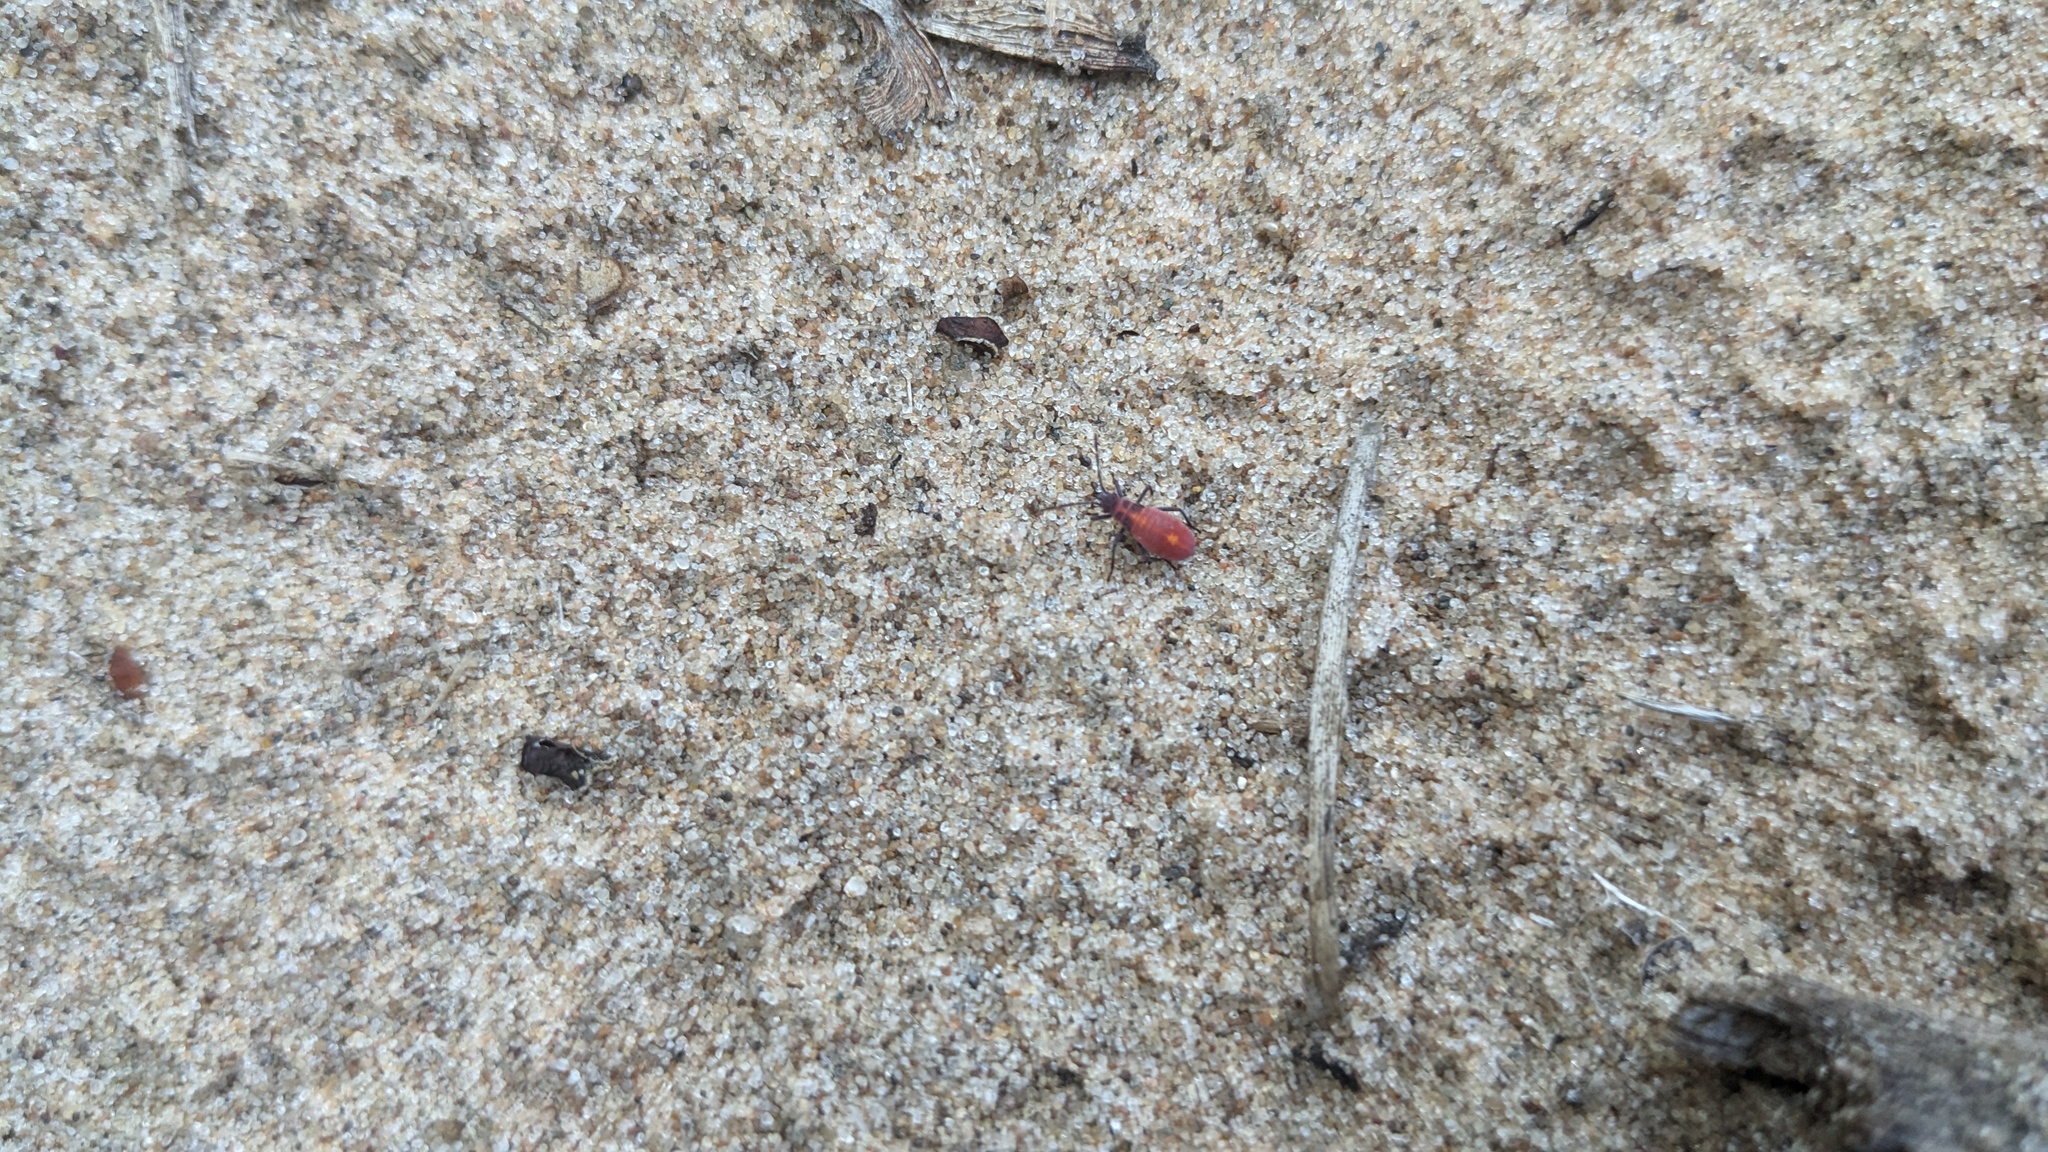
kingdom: Animalia
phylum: Arthropoda
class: Insecta
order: Hemiptera
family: Rhopalidae
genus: Boisea
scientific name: Boisea trivittata
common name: Boxelder bug
